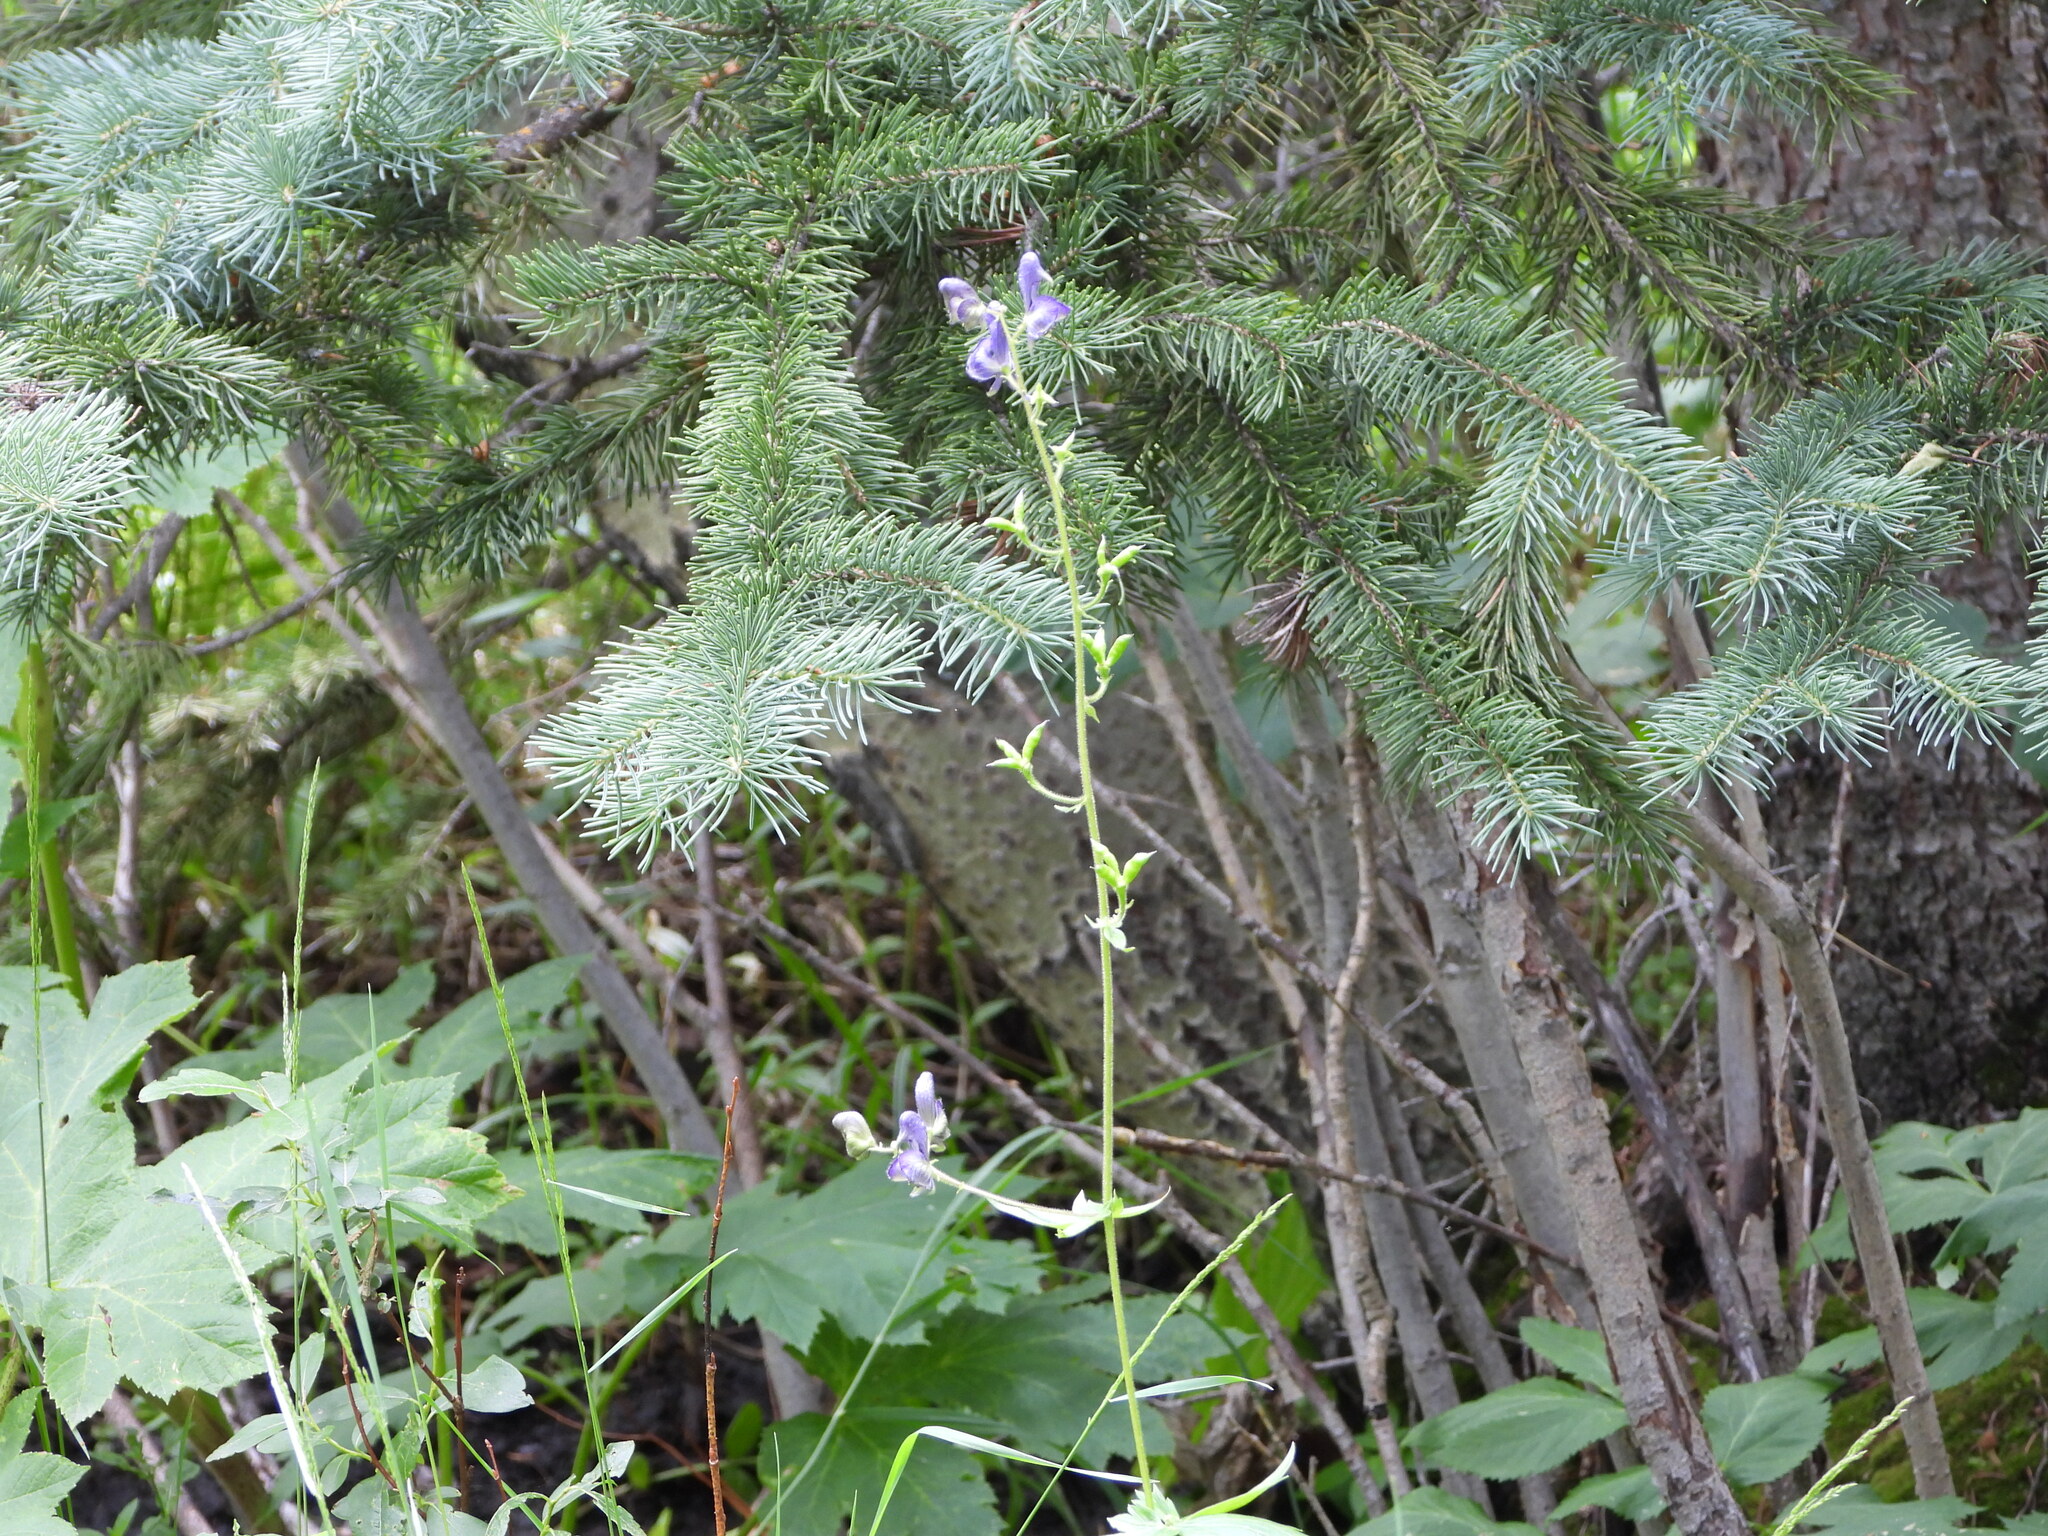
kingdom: Plantae
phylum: Tracheophyta
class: Magnoliopsida
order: Ranunculales
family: Ranunculaceae
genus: Aconitum
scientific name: Aconitum columbianum
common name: Columbia aconite
